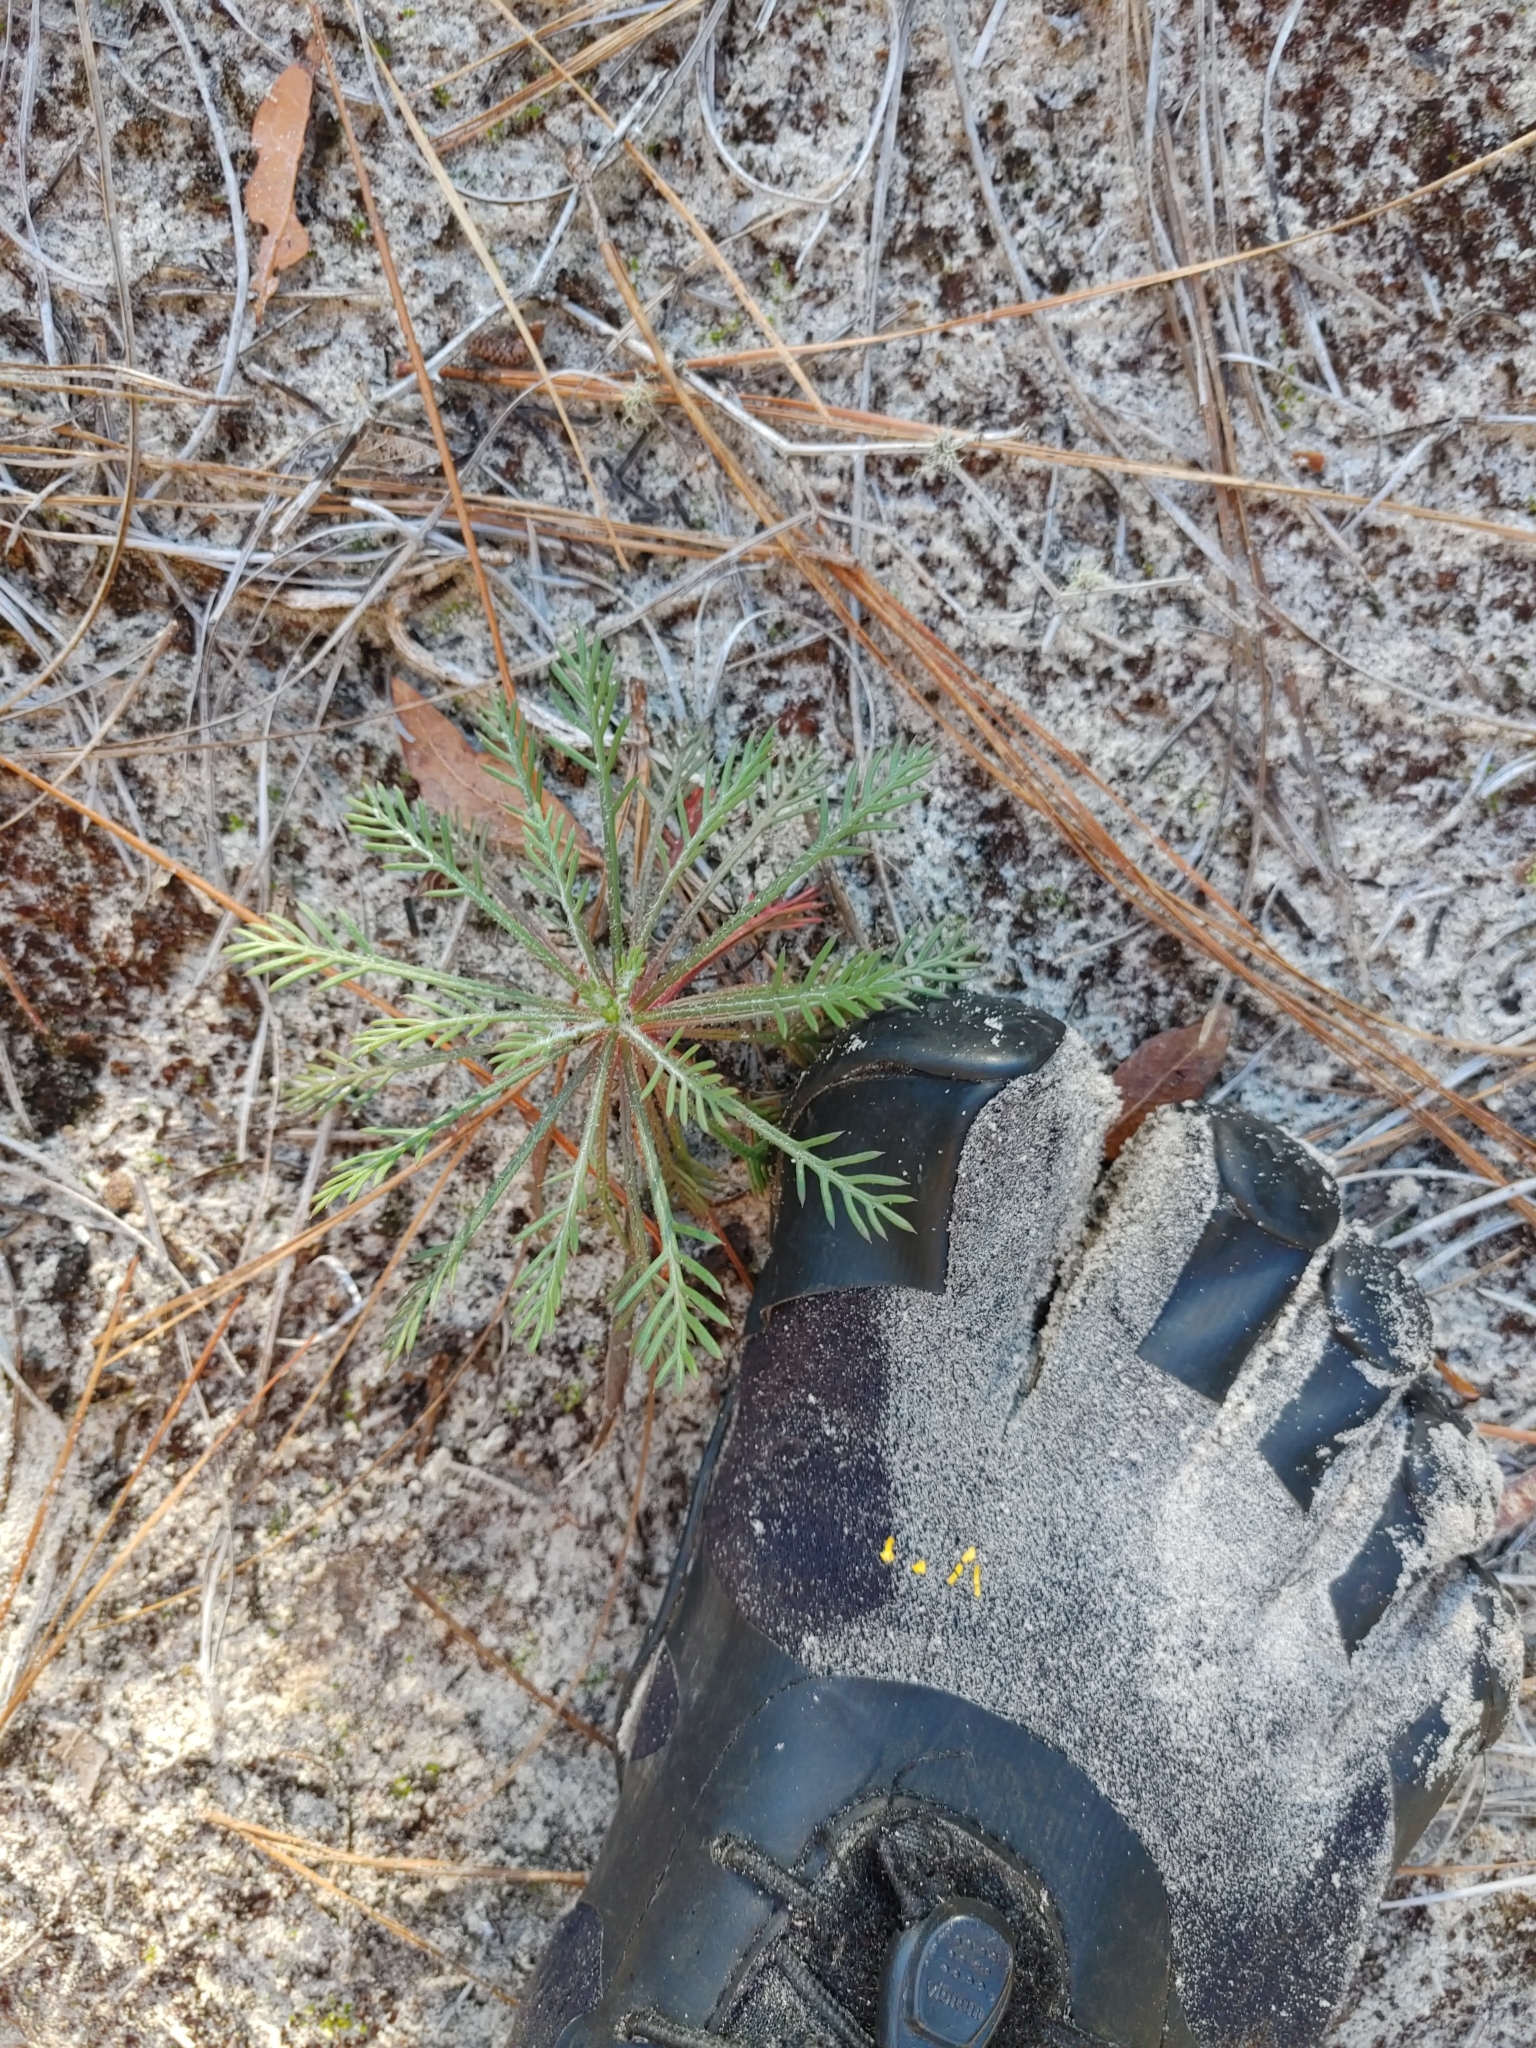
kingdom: Plantae
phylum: Tracheophyta
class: Magnoliopsida
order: Ericales
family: Polemoniaceae
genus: Ipomopsis
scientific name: Ipomopsis rubra
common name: Skyrocket
